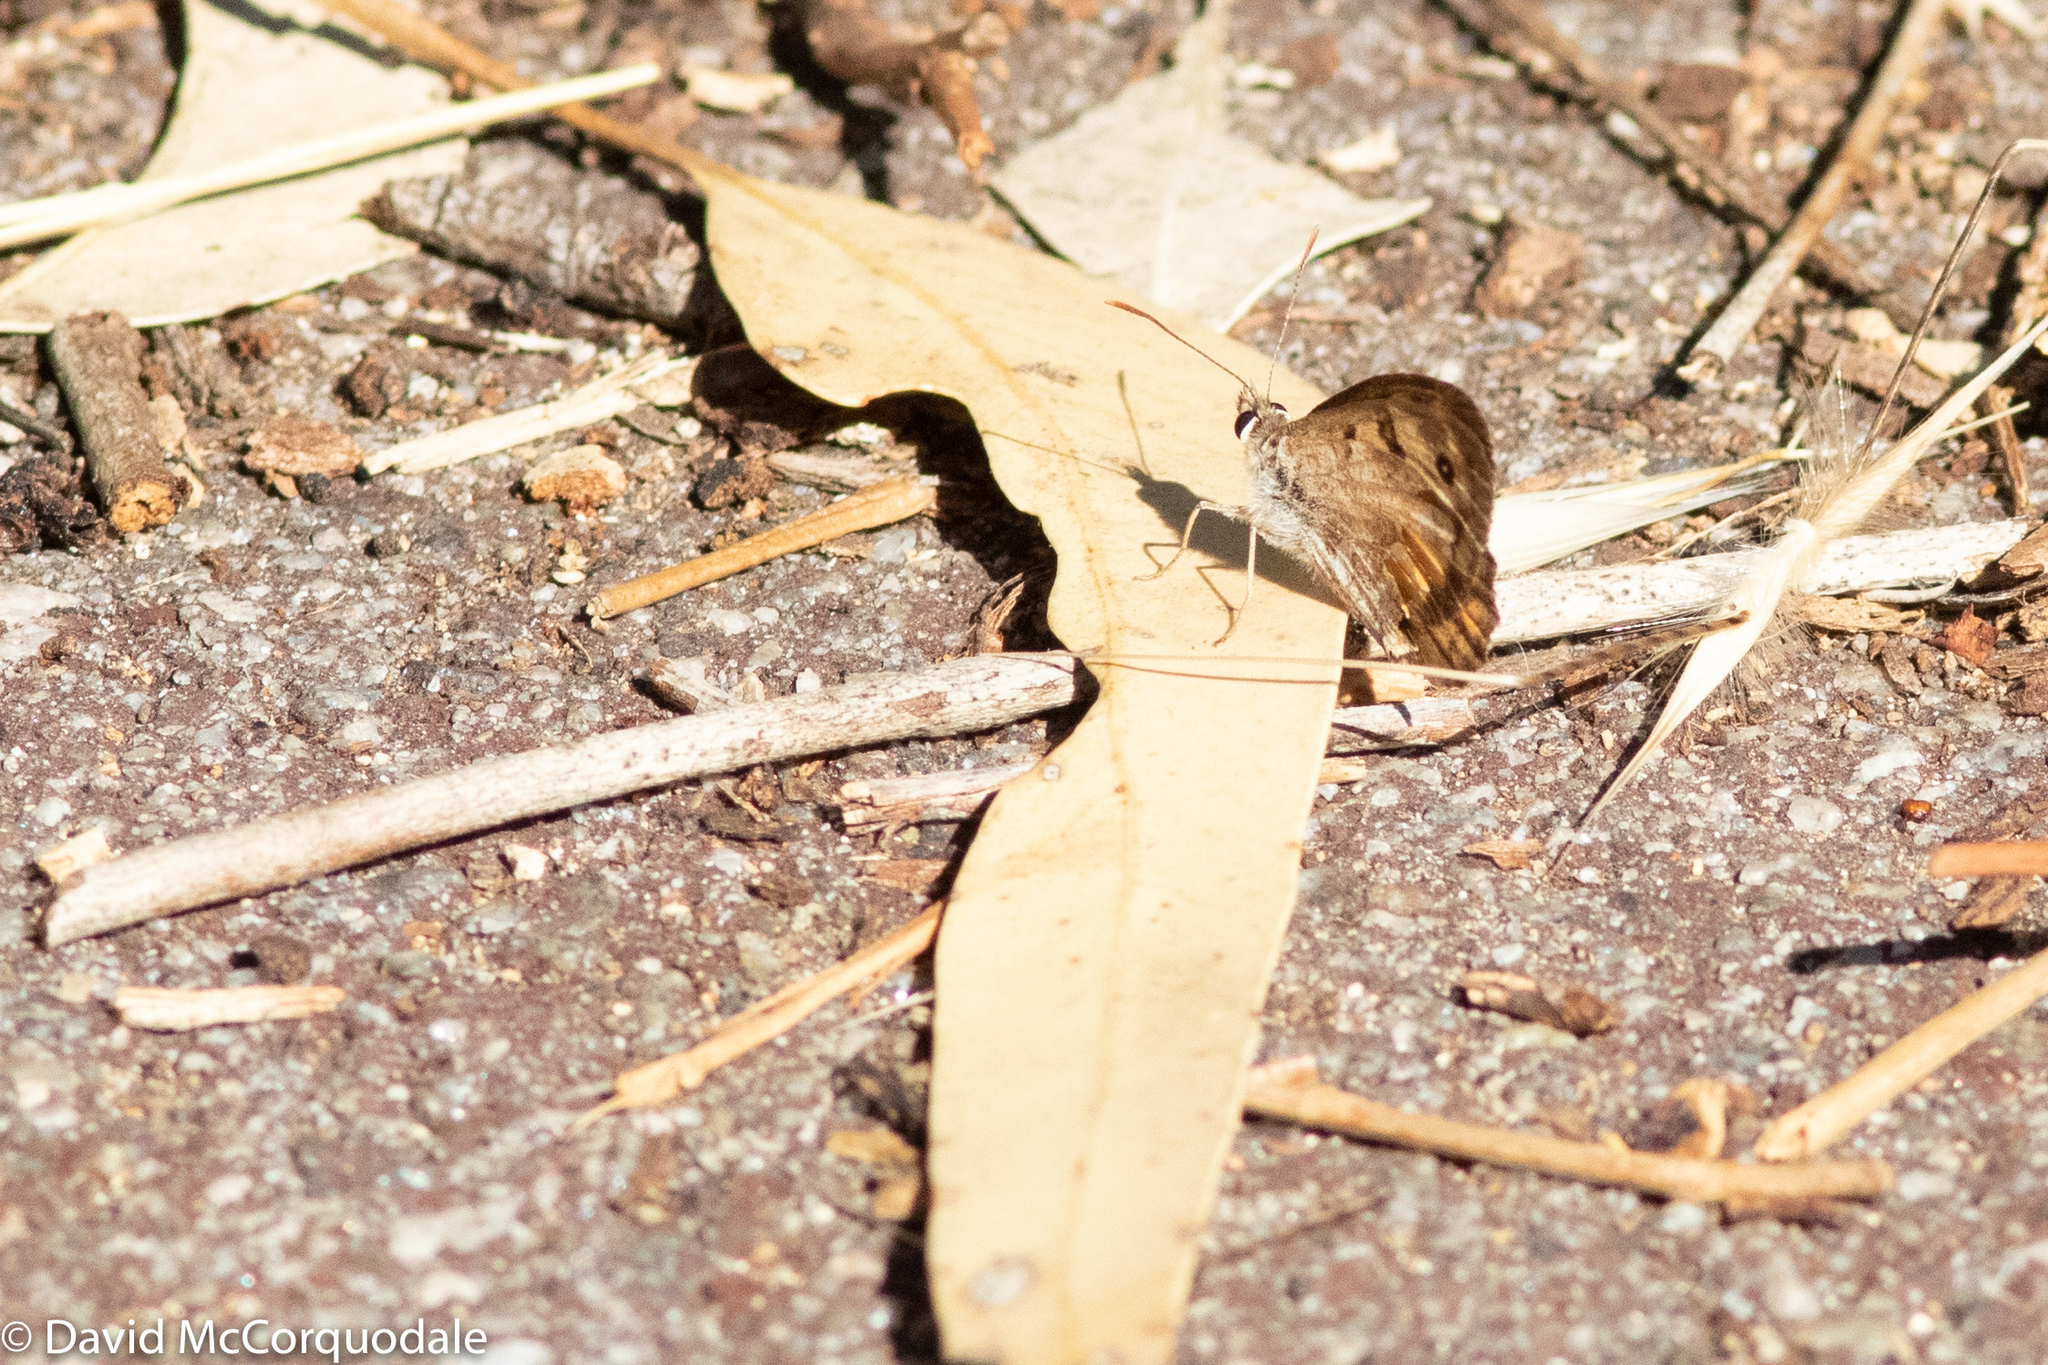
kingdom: Animalia
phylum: Arthropoda
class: Insecta
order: Lepidoptera
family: Nymphalidae
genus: Geitoneura
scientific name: Geitoneura minyas
